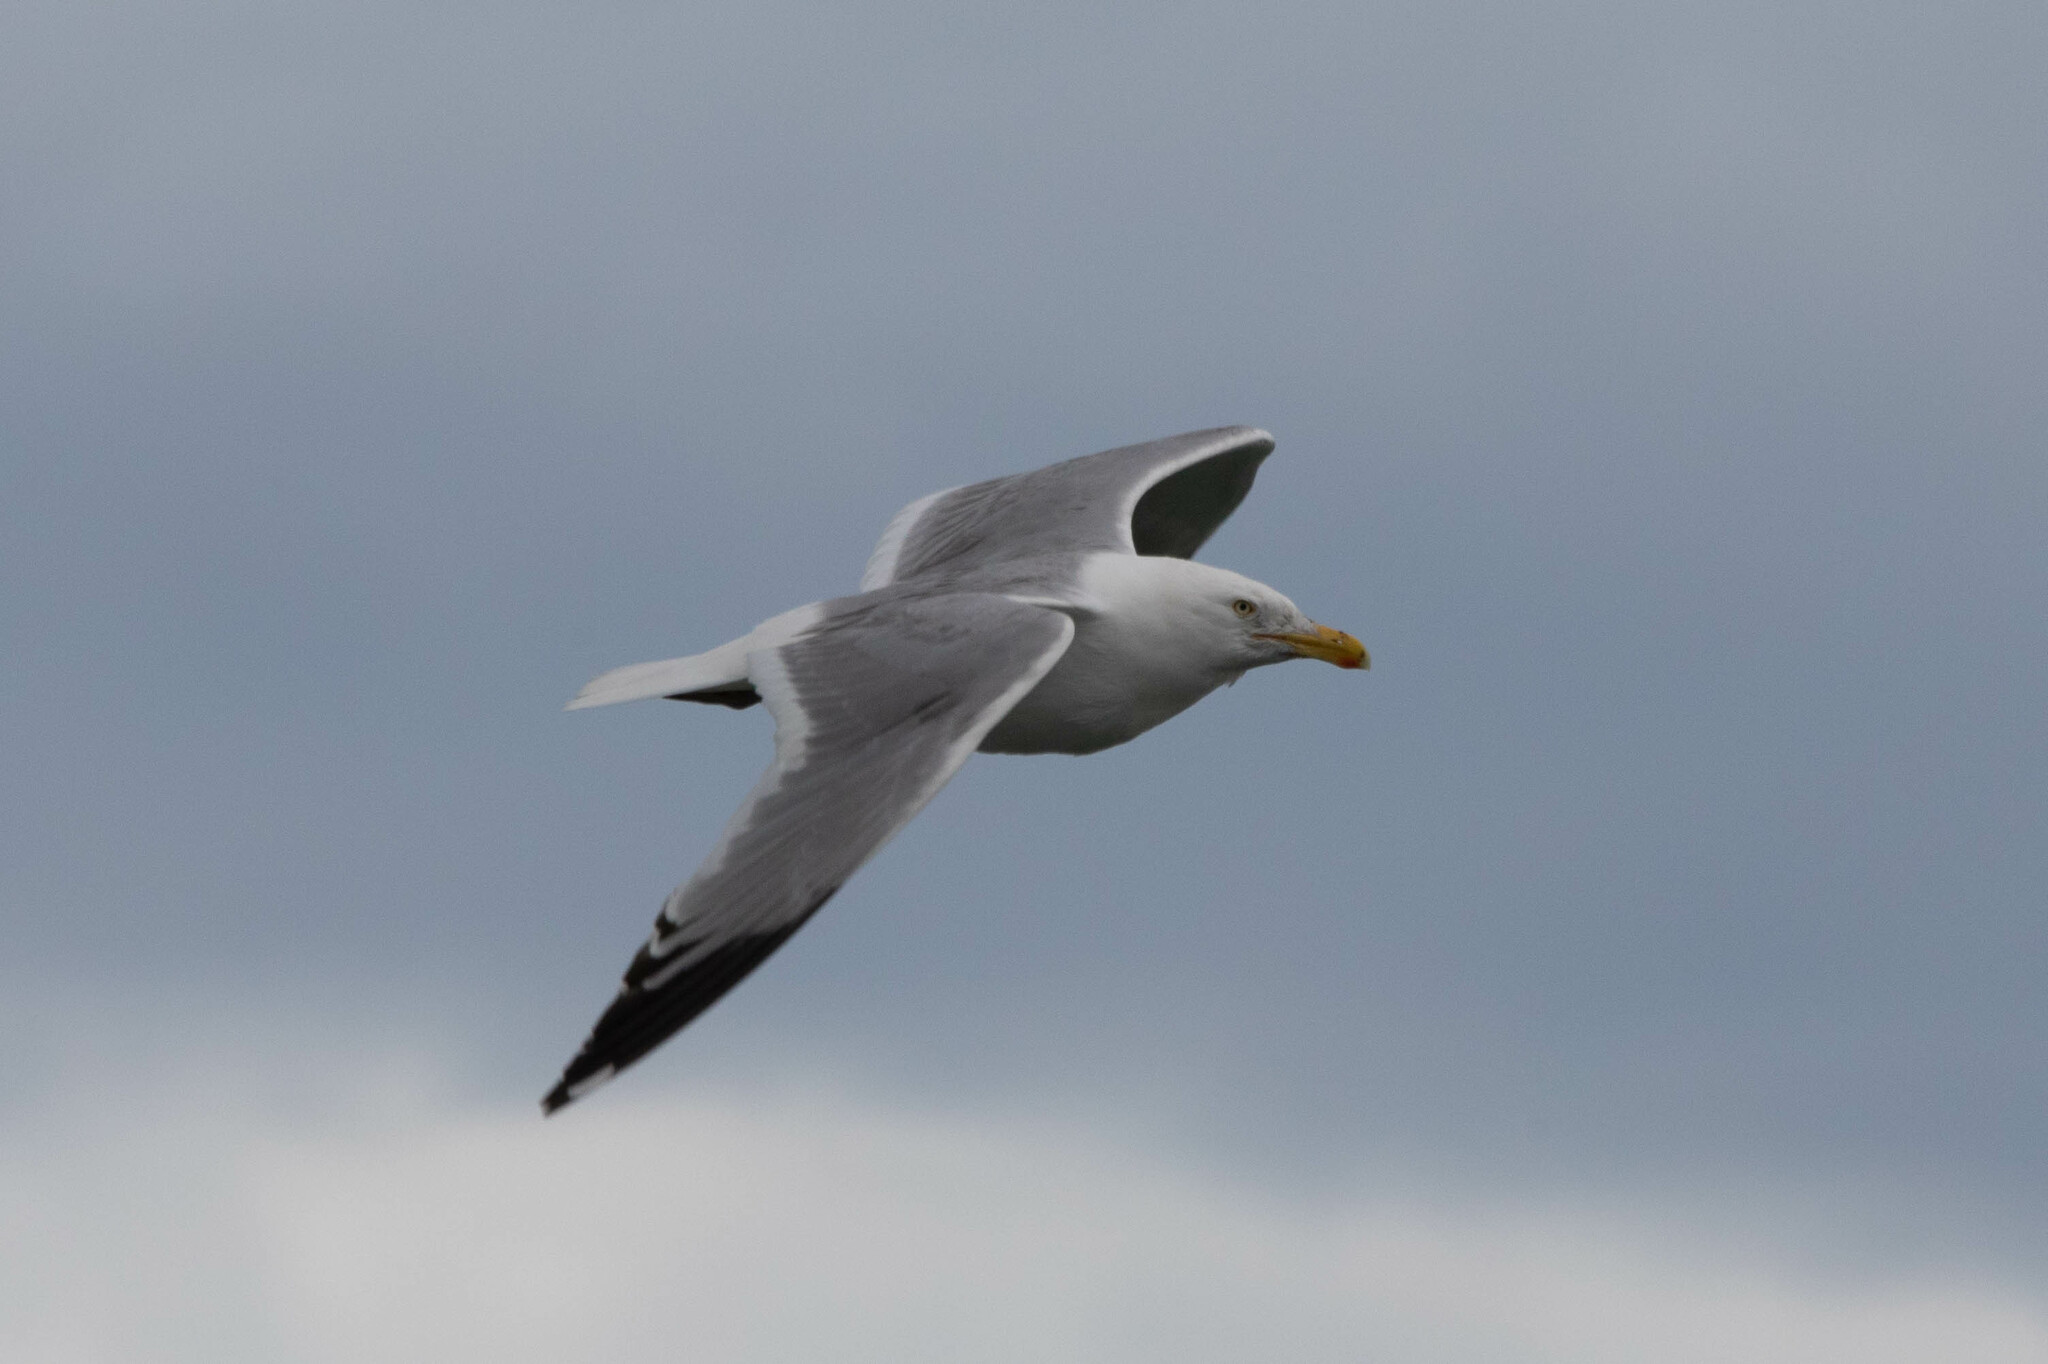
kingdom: Animalia
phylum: Chordata
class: Aves
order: Charadriiformes
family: Laridae
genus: Larus
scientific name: Larus argentatus
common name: Herring gull
